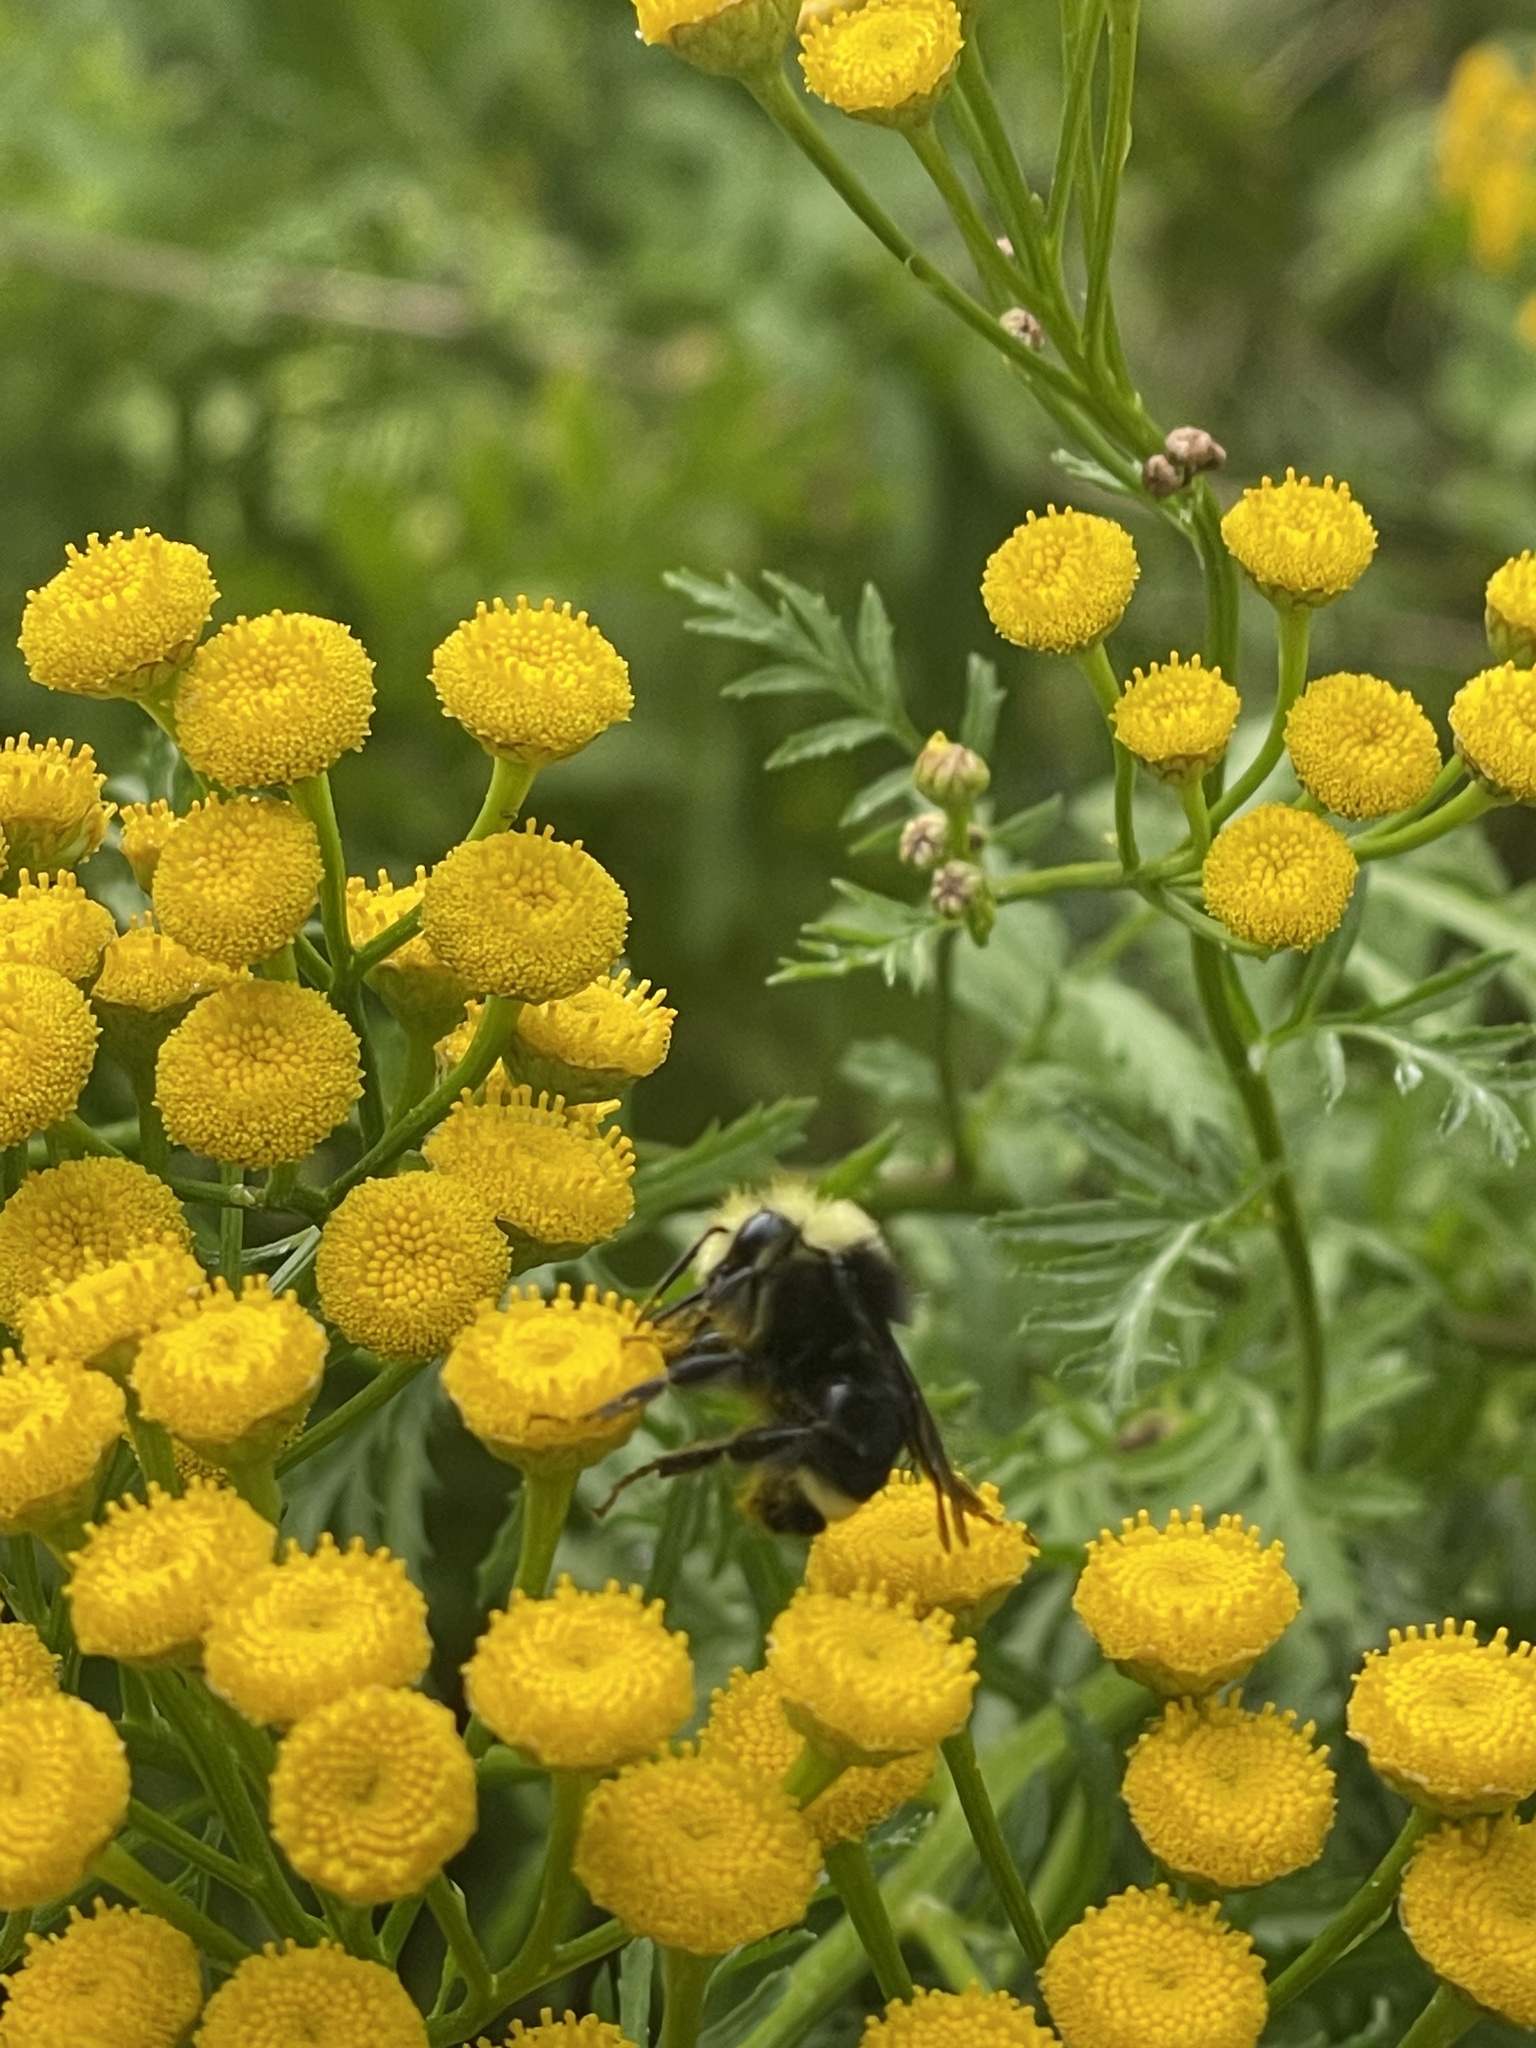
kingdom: Animalia
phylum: Arthropoda
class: Insecta
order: Hymenoptera
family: Apidae
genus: Bombus
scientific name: Bombus vosnesenskii
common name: Vosnesensky bumble bee
